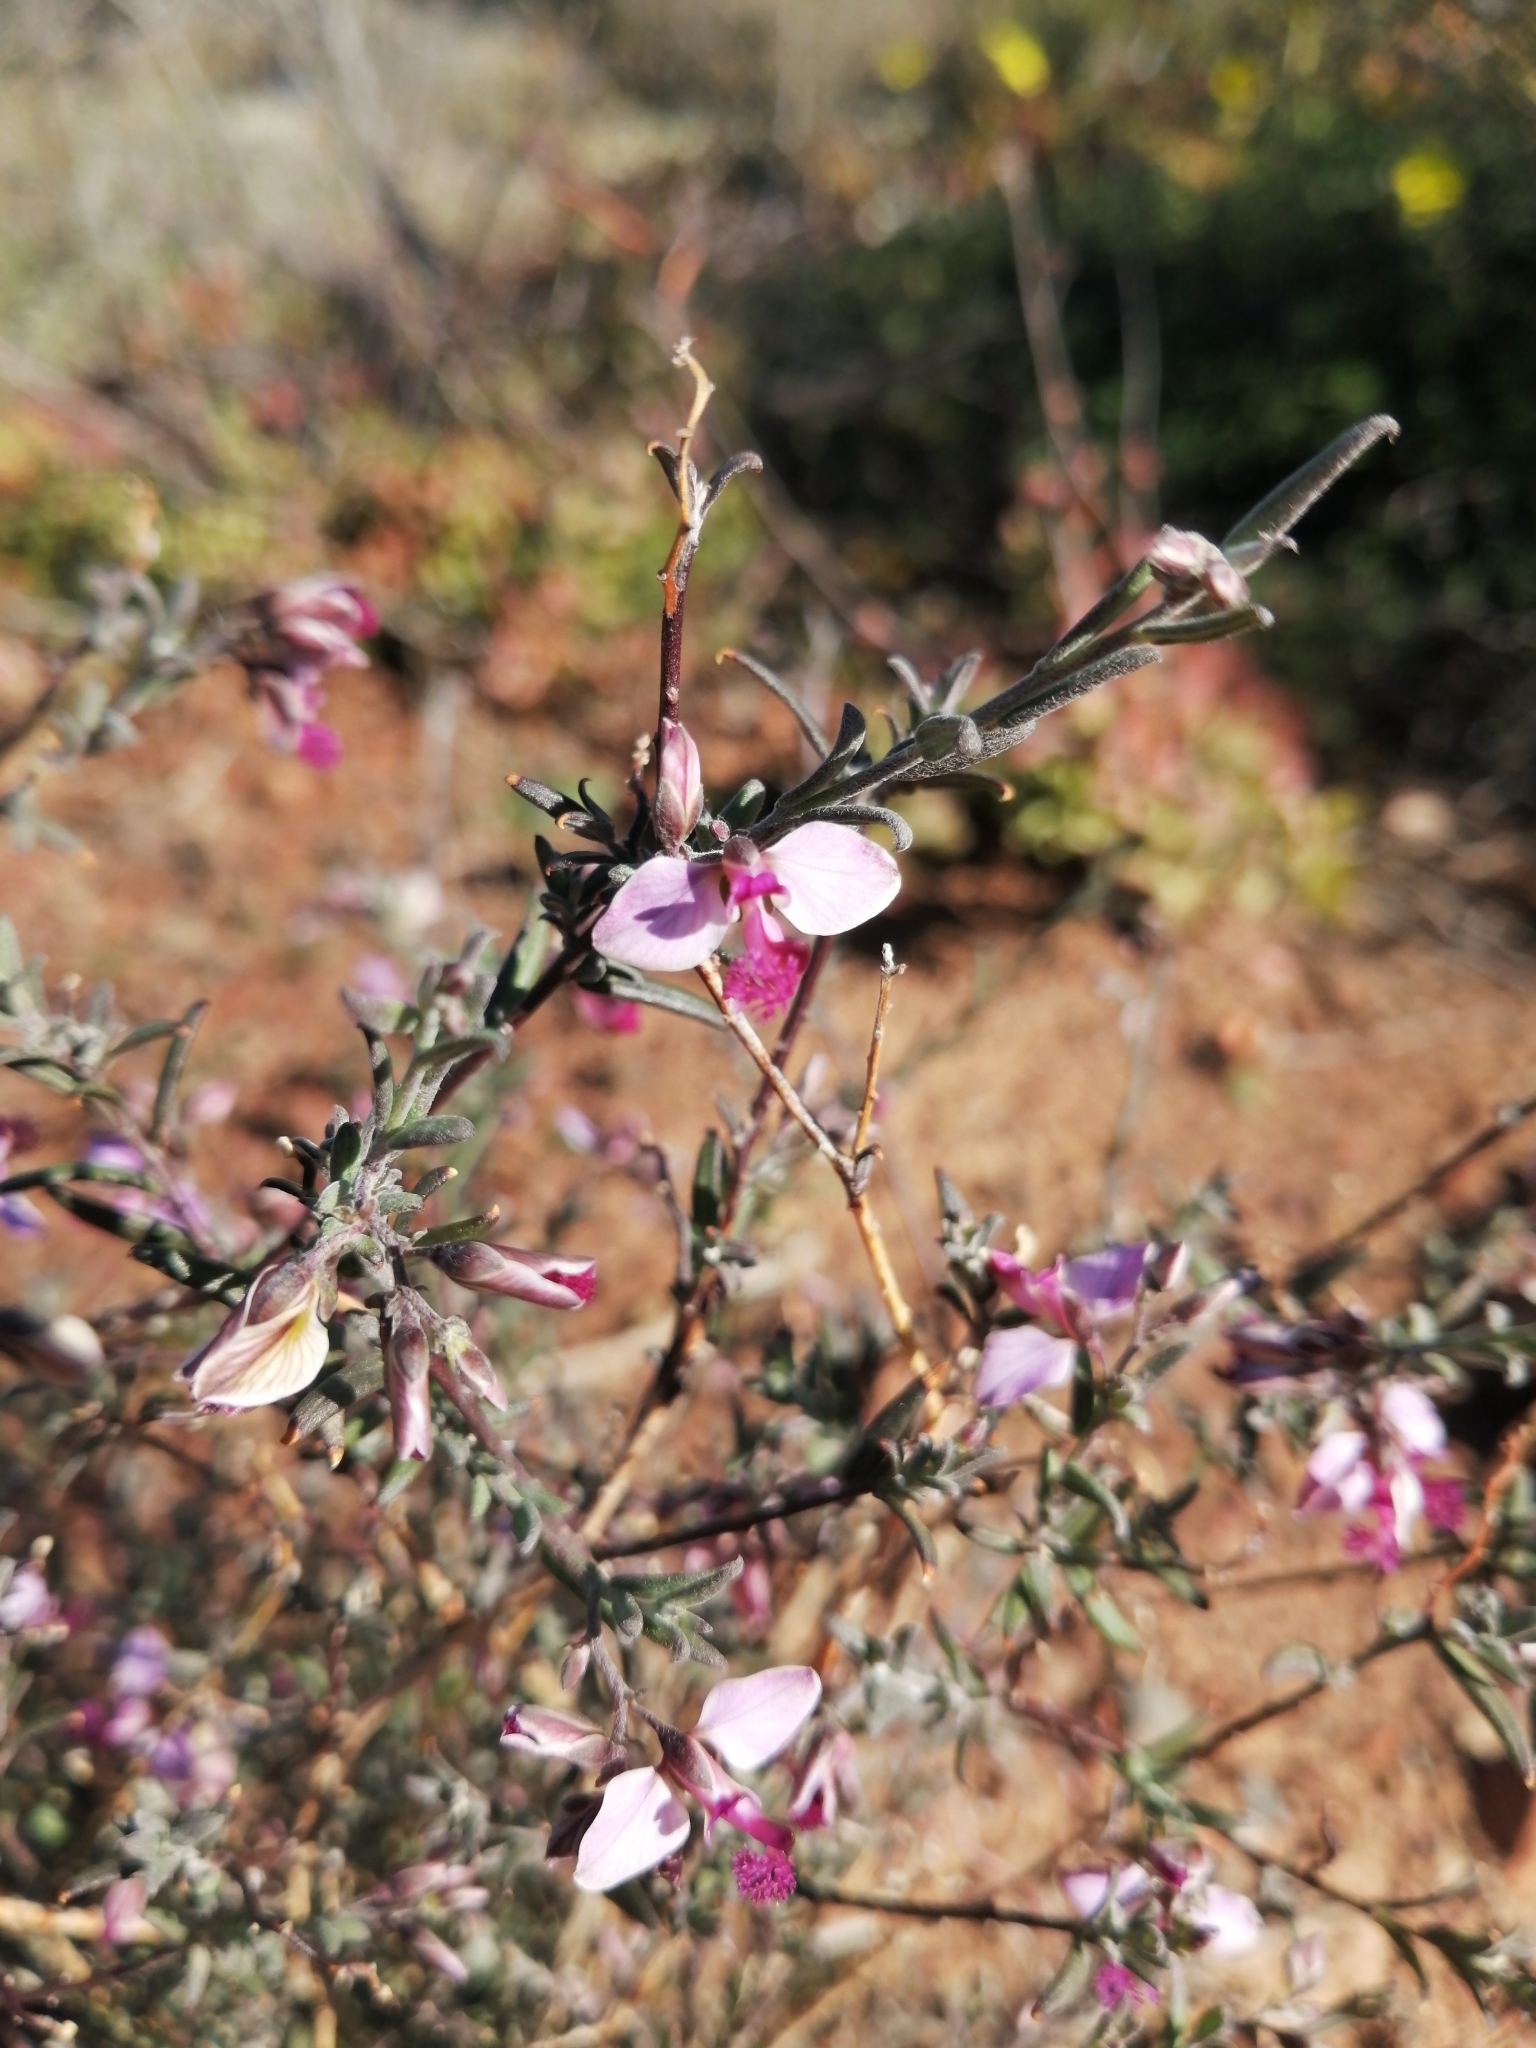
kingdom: Plantae
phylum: Tracheophyta
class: Magnoliopsida
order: Fabales
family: Polygalaceae
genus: Polygala
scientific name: Polygala scabra
